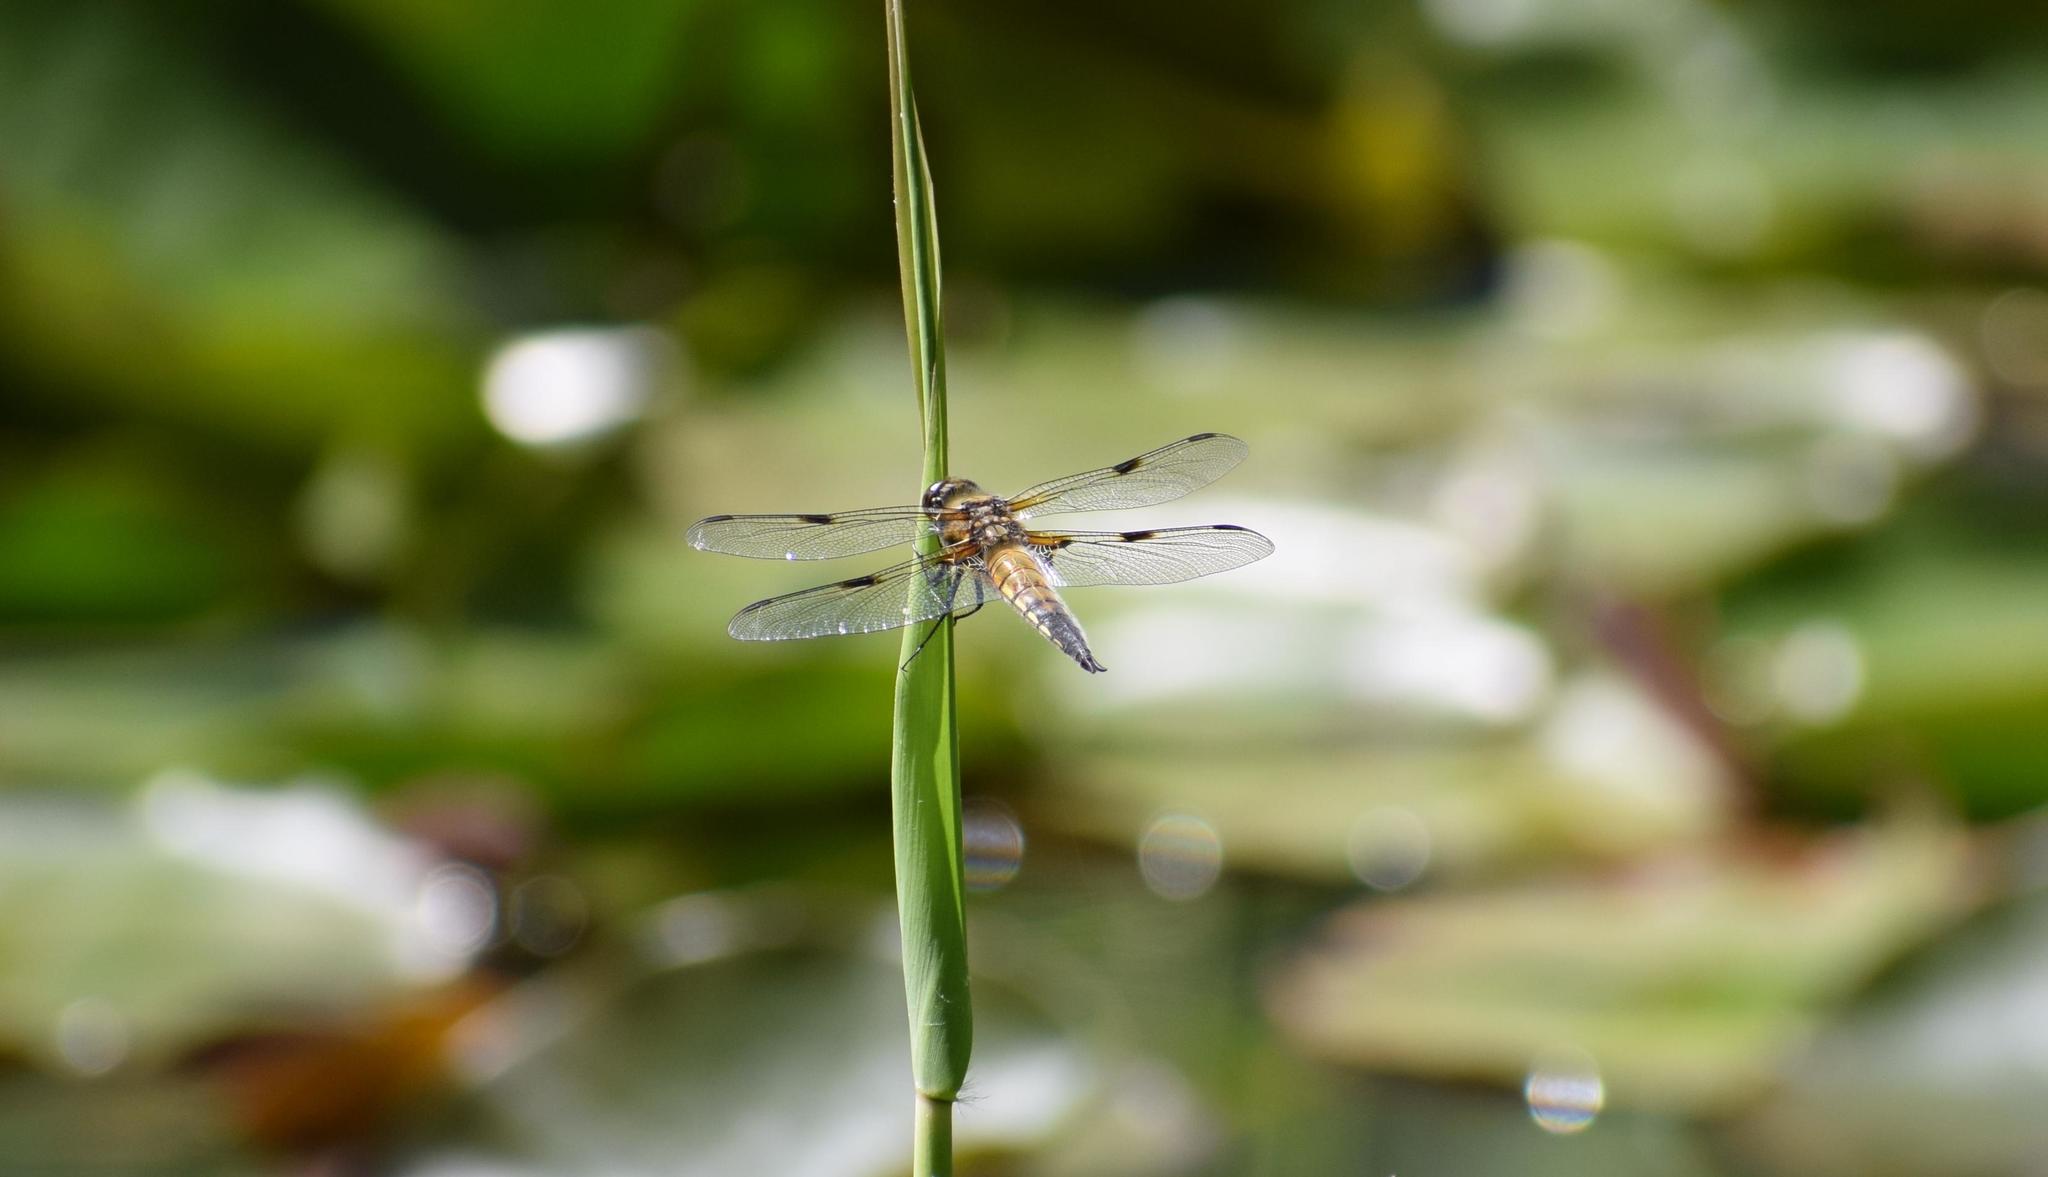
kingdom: Animalia
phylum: Arthropoda
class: Insecta
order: Odonata
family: Libellulidae
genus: Libellula
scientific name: Libellula quadrimaculata
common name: Four-spotted chaser
